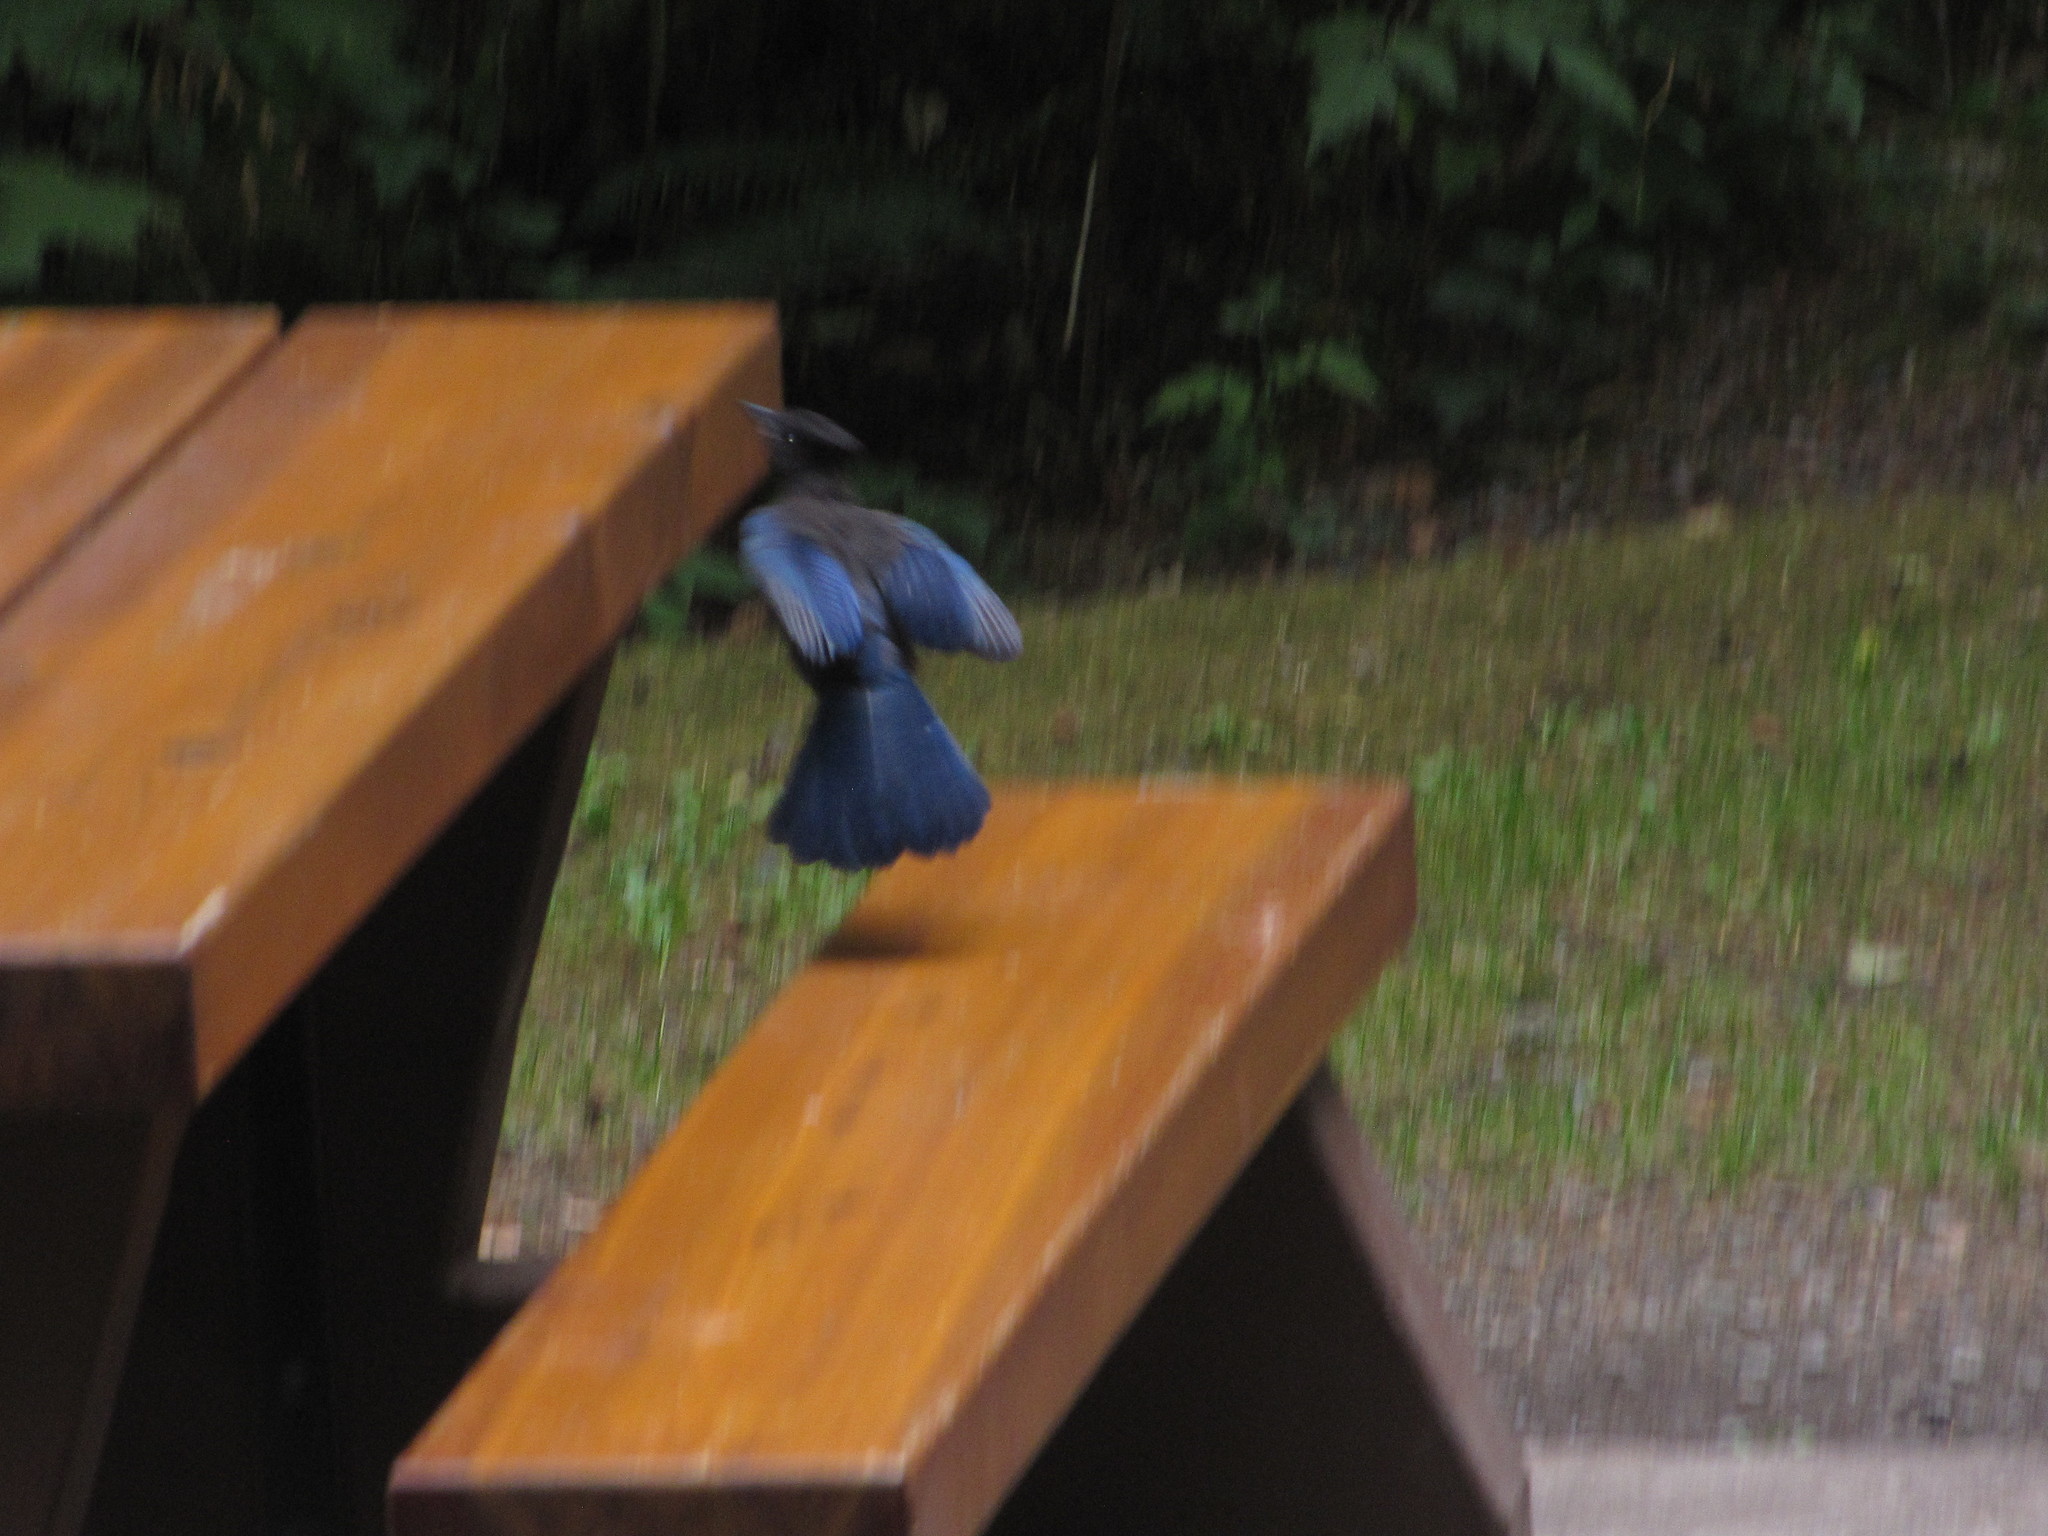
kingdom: Animalia
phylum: Chordata
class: Aves
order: Passeriformes
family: Corvidae
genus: Cyanocitta
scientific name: Cyanocitta stelleri
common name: Steller's jay
